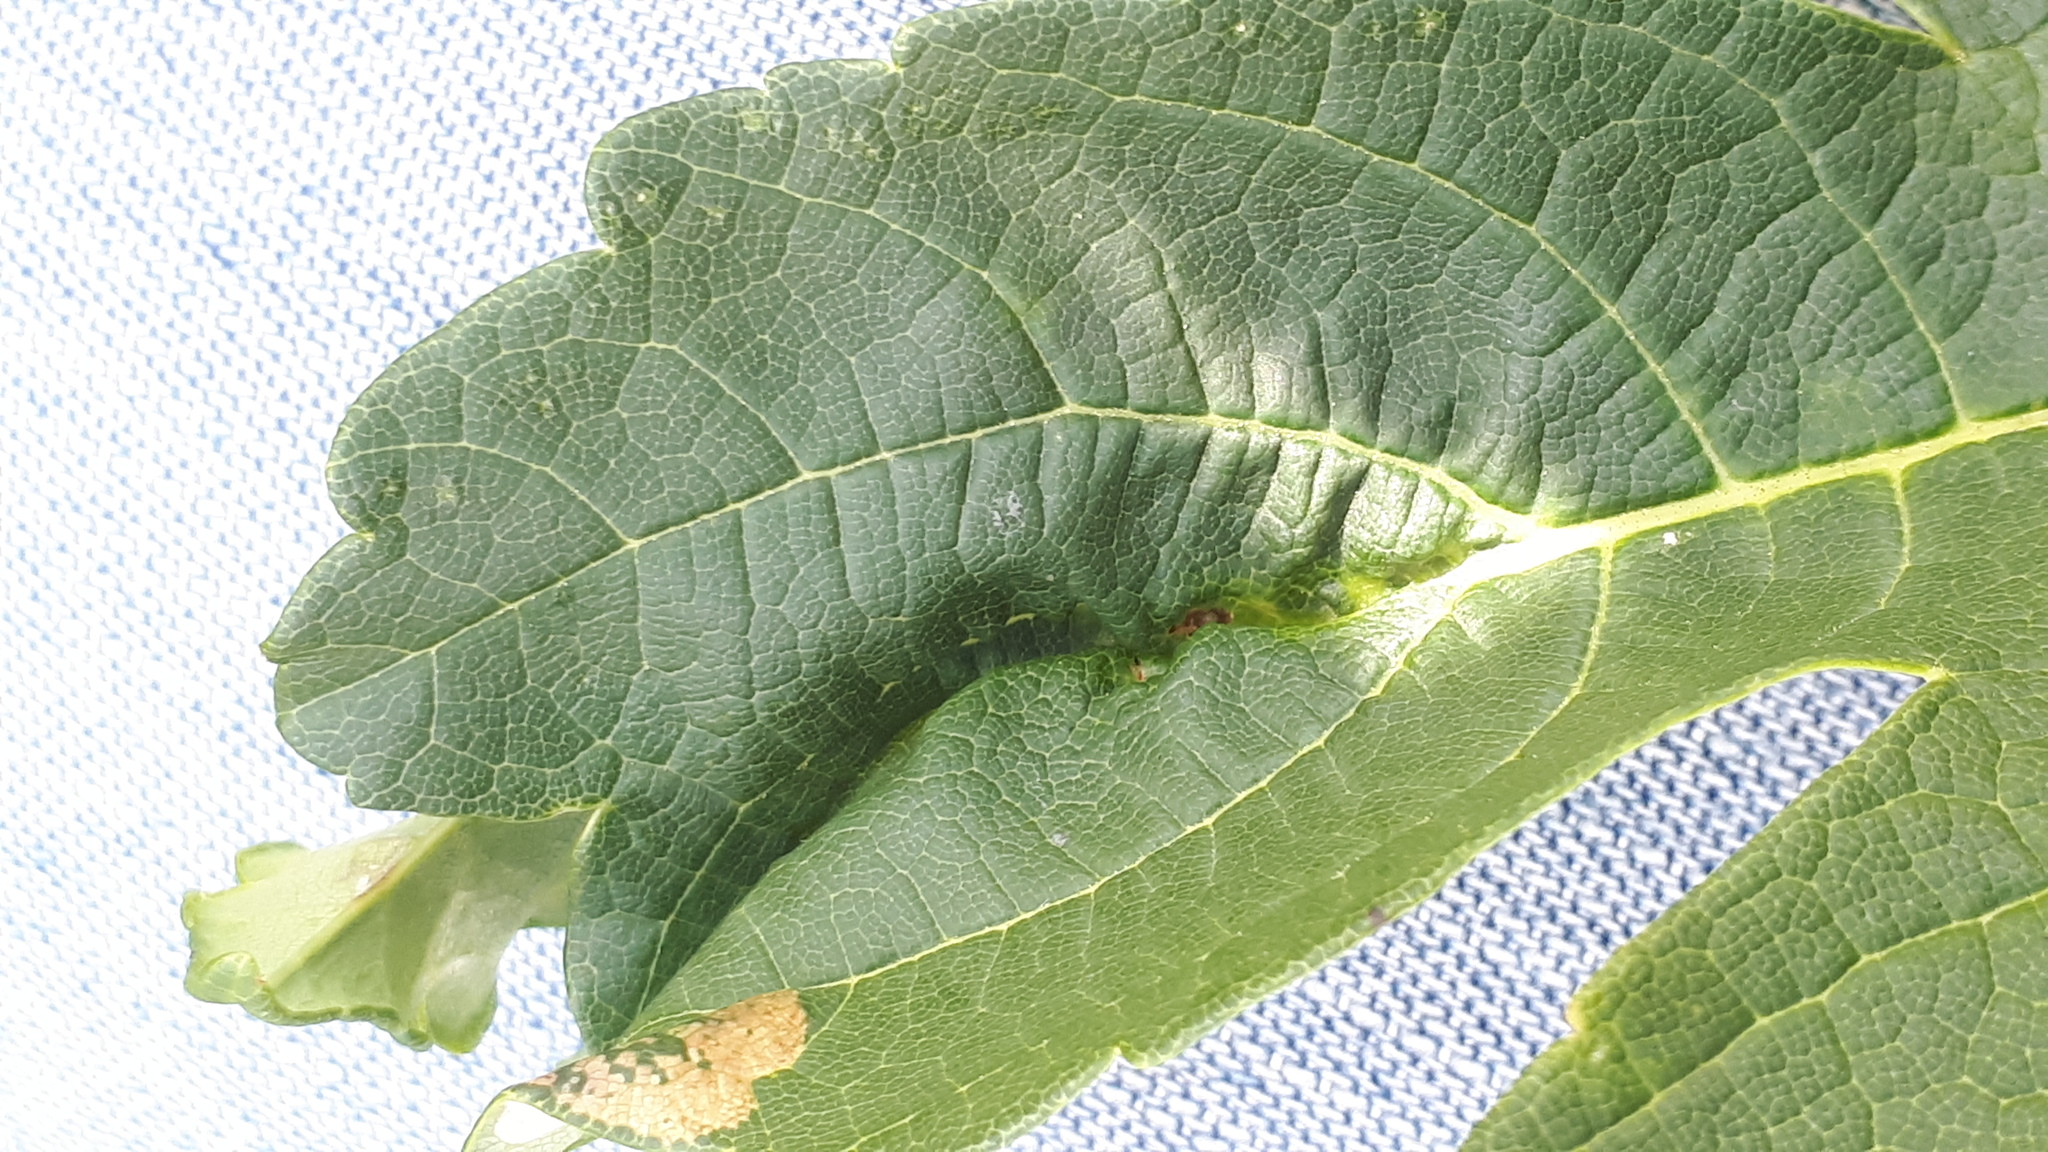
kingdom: Animalia
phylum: Arthropoda
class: Insecta
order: Diptera
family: Cecidomyiidae
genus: Dasineura
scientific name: Dasineura irregularis
